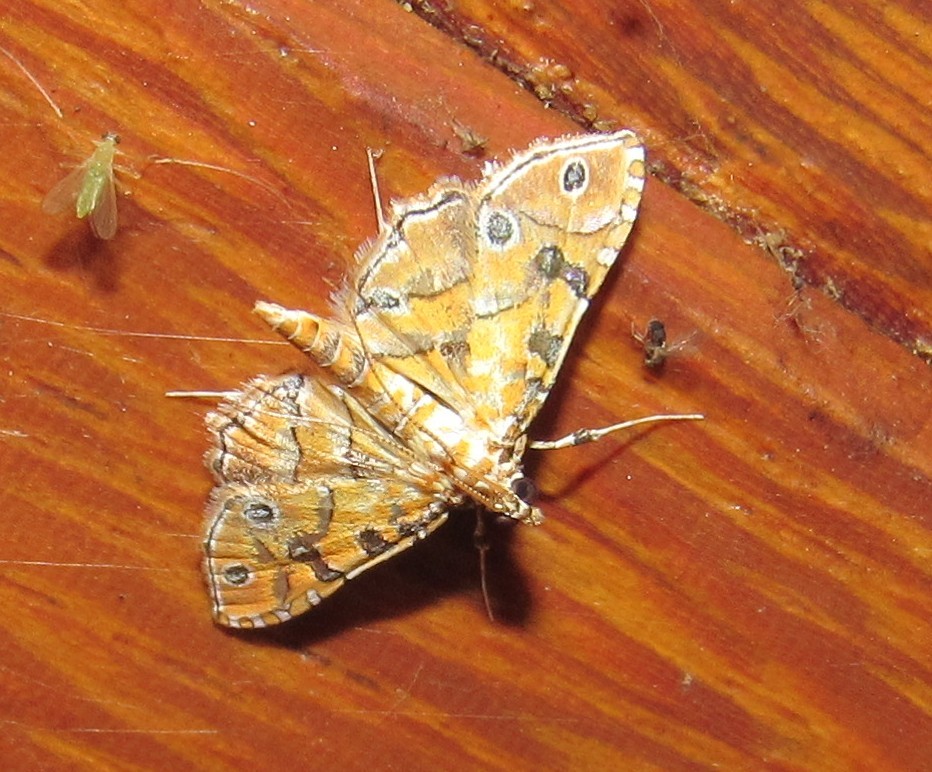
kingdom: Animalia
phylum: Arthropoda
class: Insecta
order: Lepidoptera
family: Crambidae
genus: Ommatospila
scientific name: Ommatospila narcaeusalis
